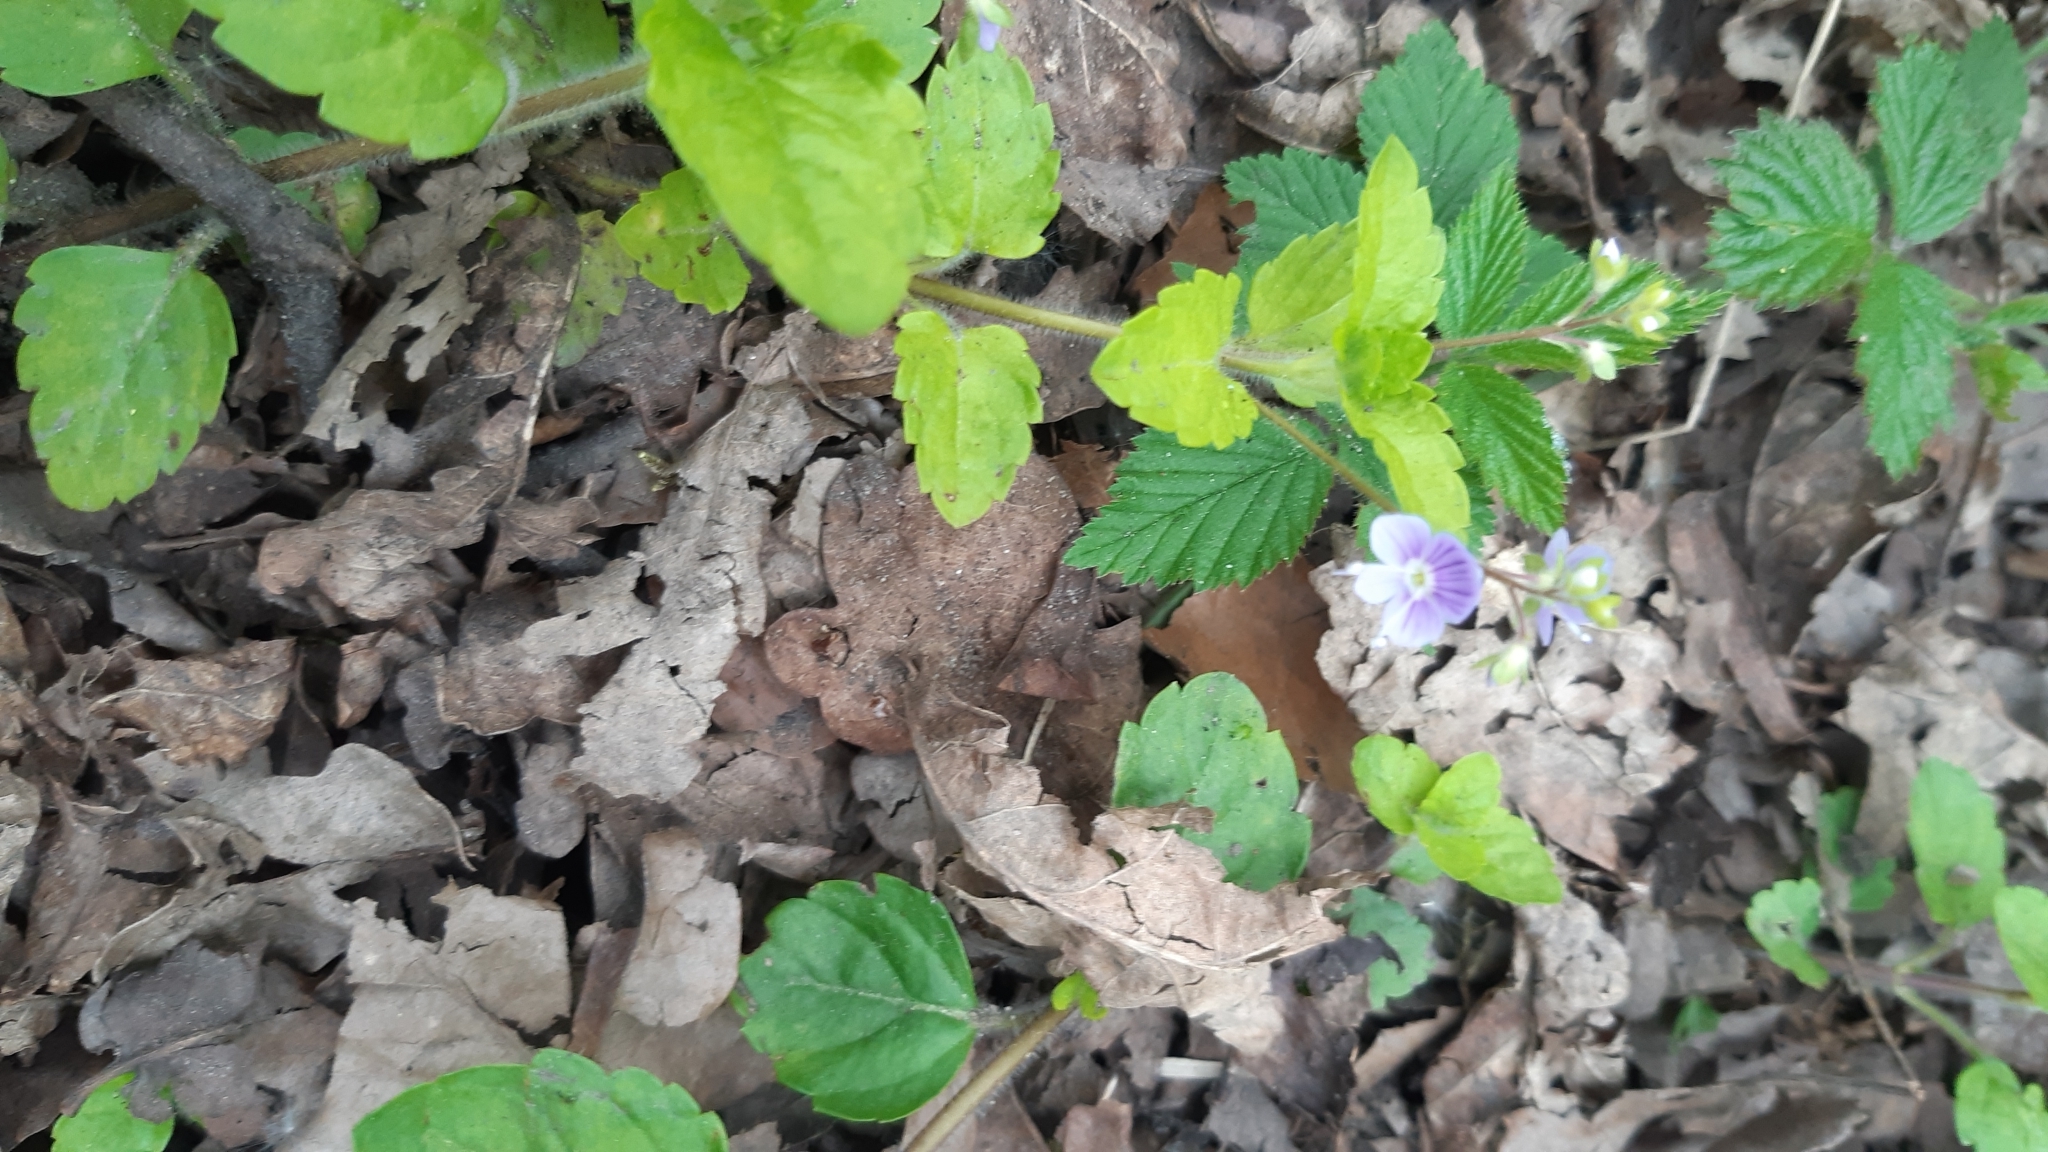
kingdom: Plantae
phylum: Tracheophyta
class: Magnoliopsida
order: Lamiales
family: Plantaginaceae
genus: Veronica
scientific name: Veronica montana
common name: Wood speedwell
